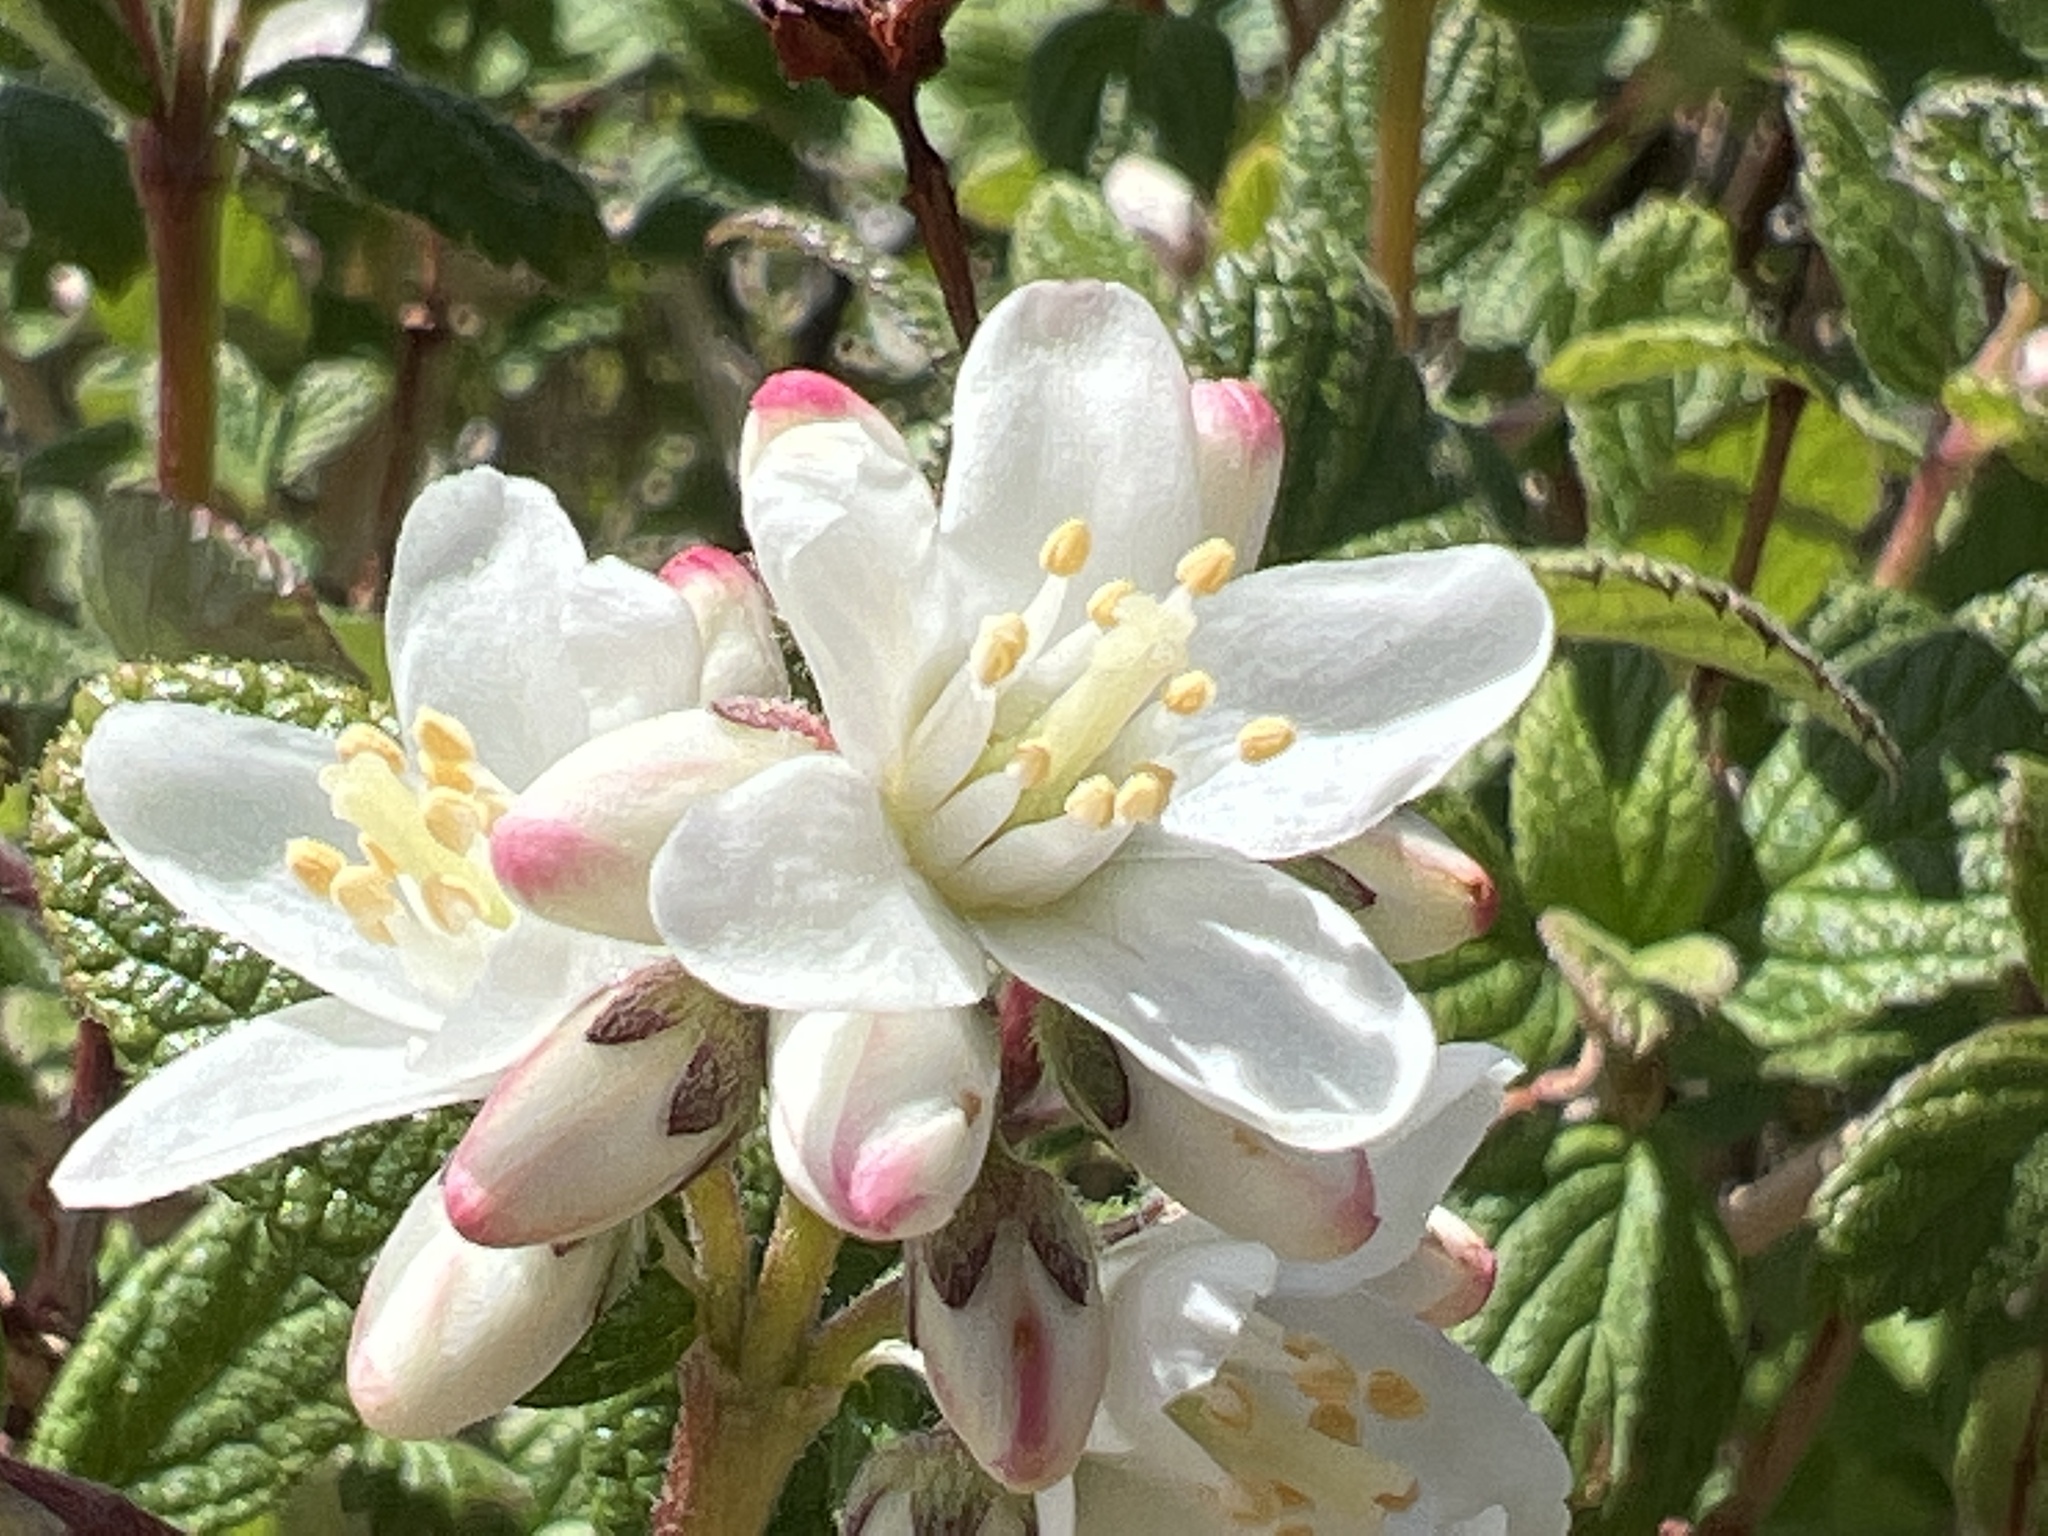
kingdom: Plantae
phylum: Tracheophyta
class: Magnoliopsida
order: Cornales
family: Hydrangeaceae
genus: Jamesia
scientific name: Jamesia americana
